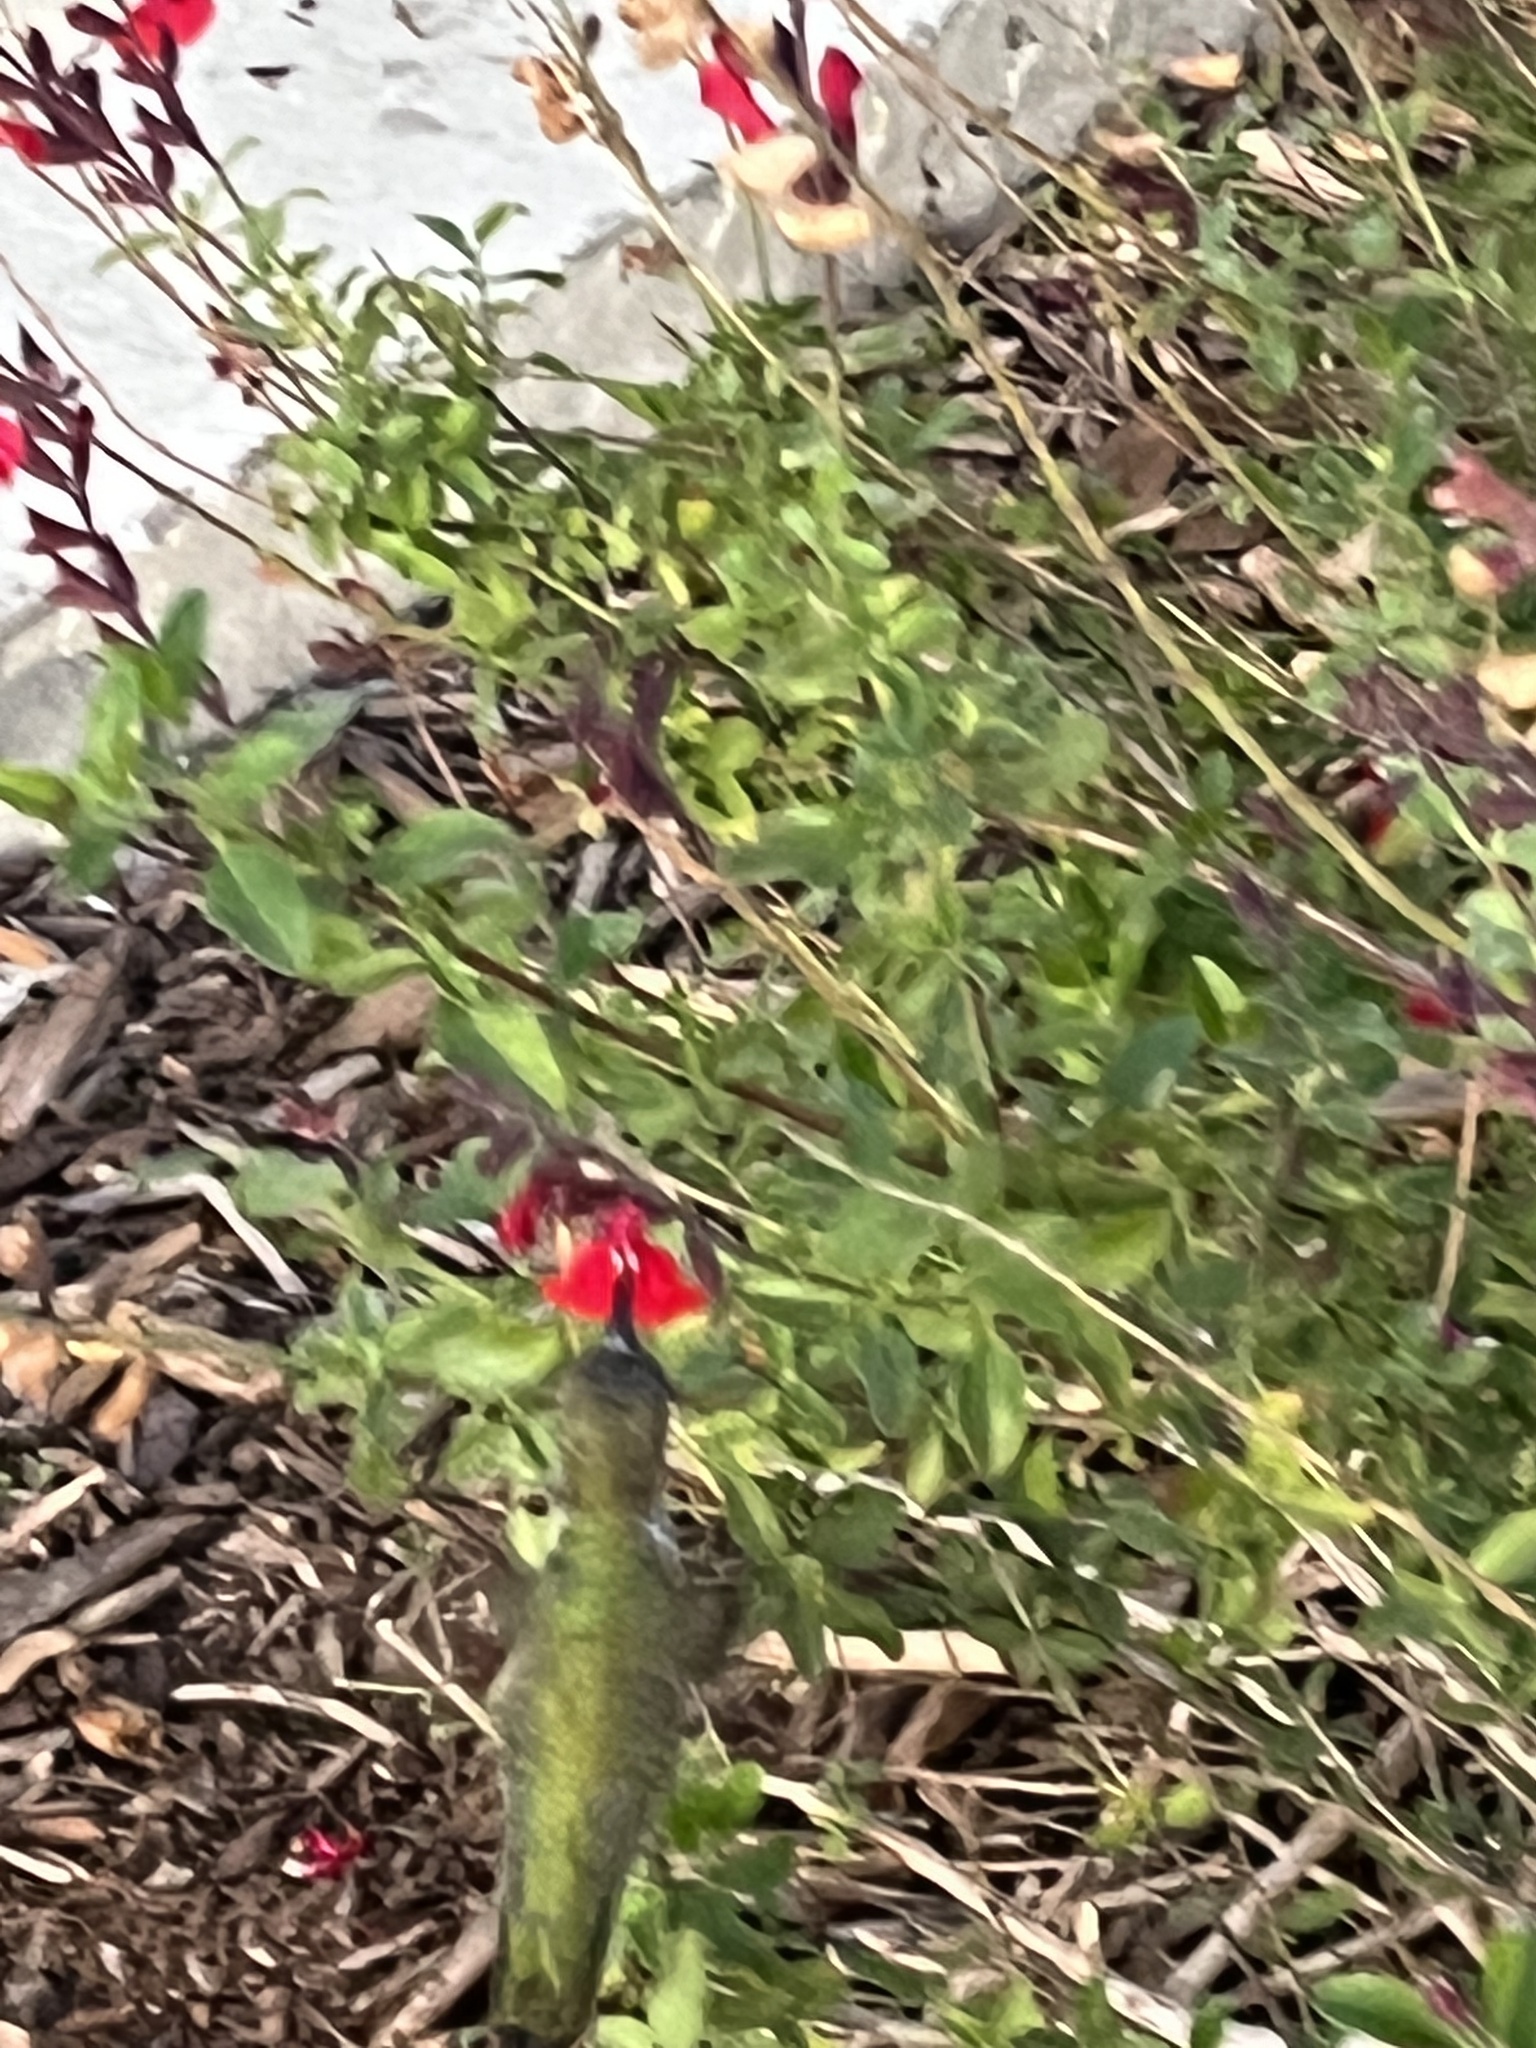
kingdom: Animalia
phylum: Chordata
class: Aves
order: Apodiformes
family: Trochilidae
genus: Calypte
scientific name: Calypte anna
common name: Anna's hummingbird
